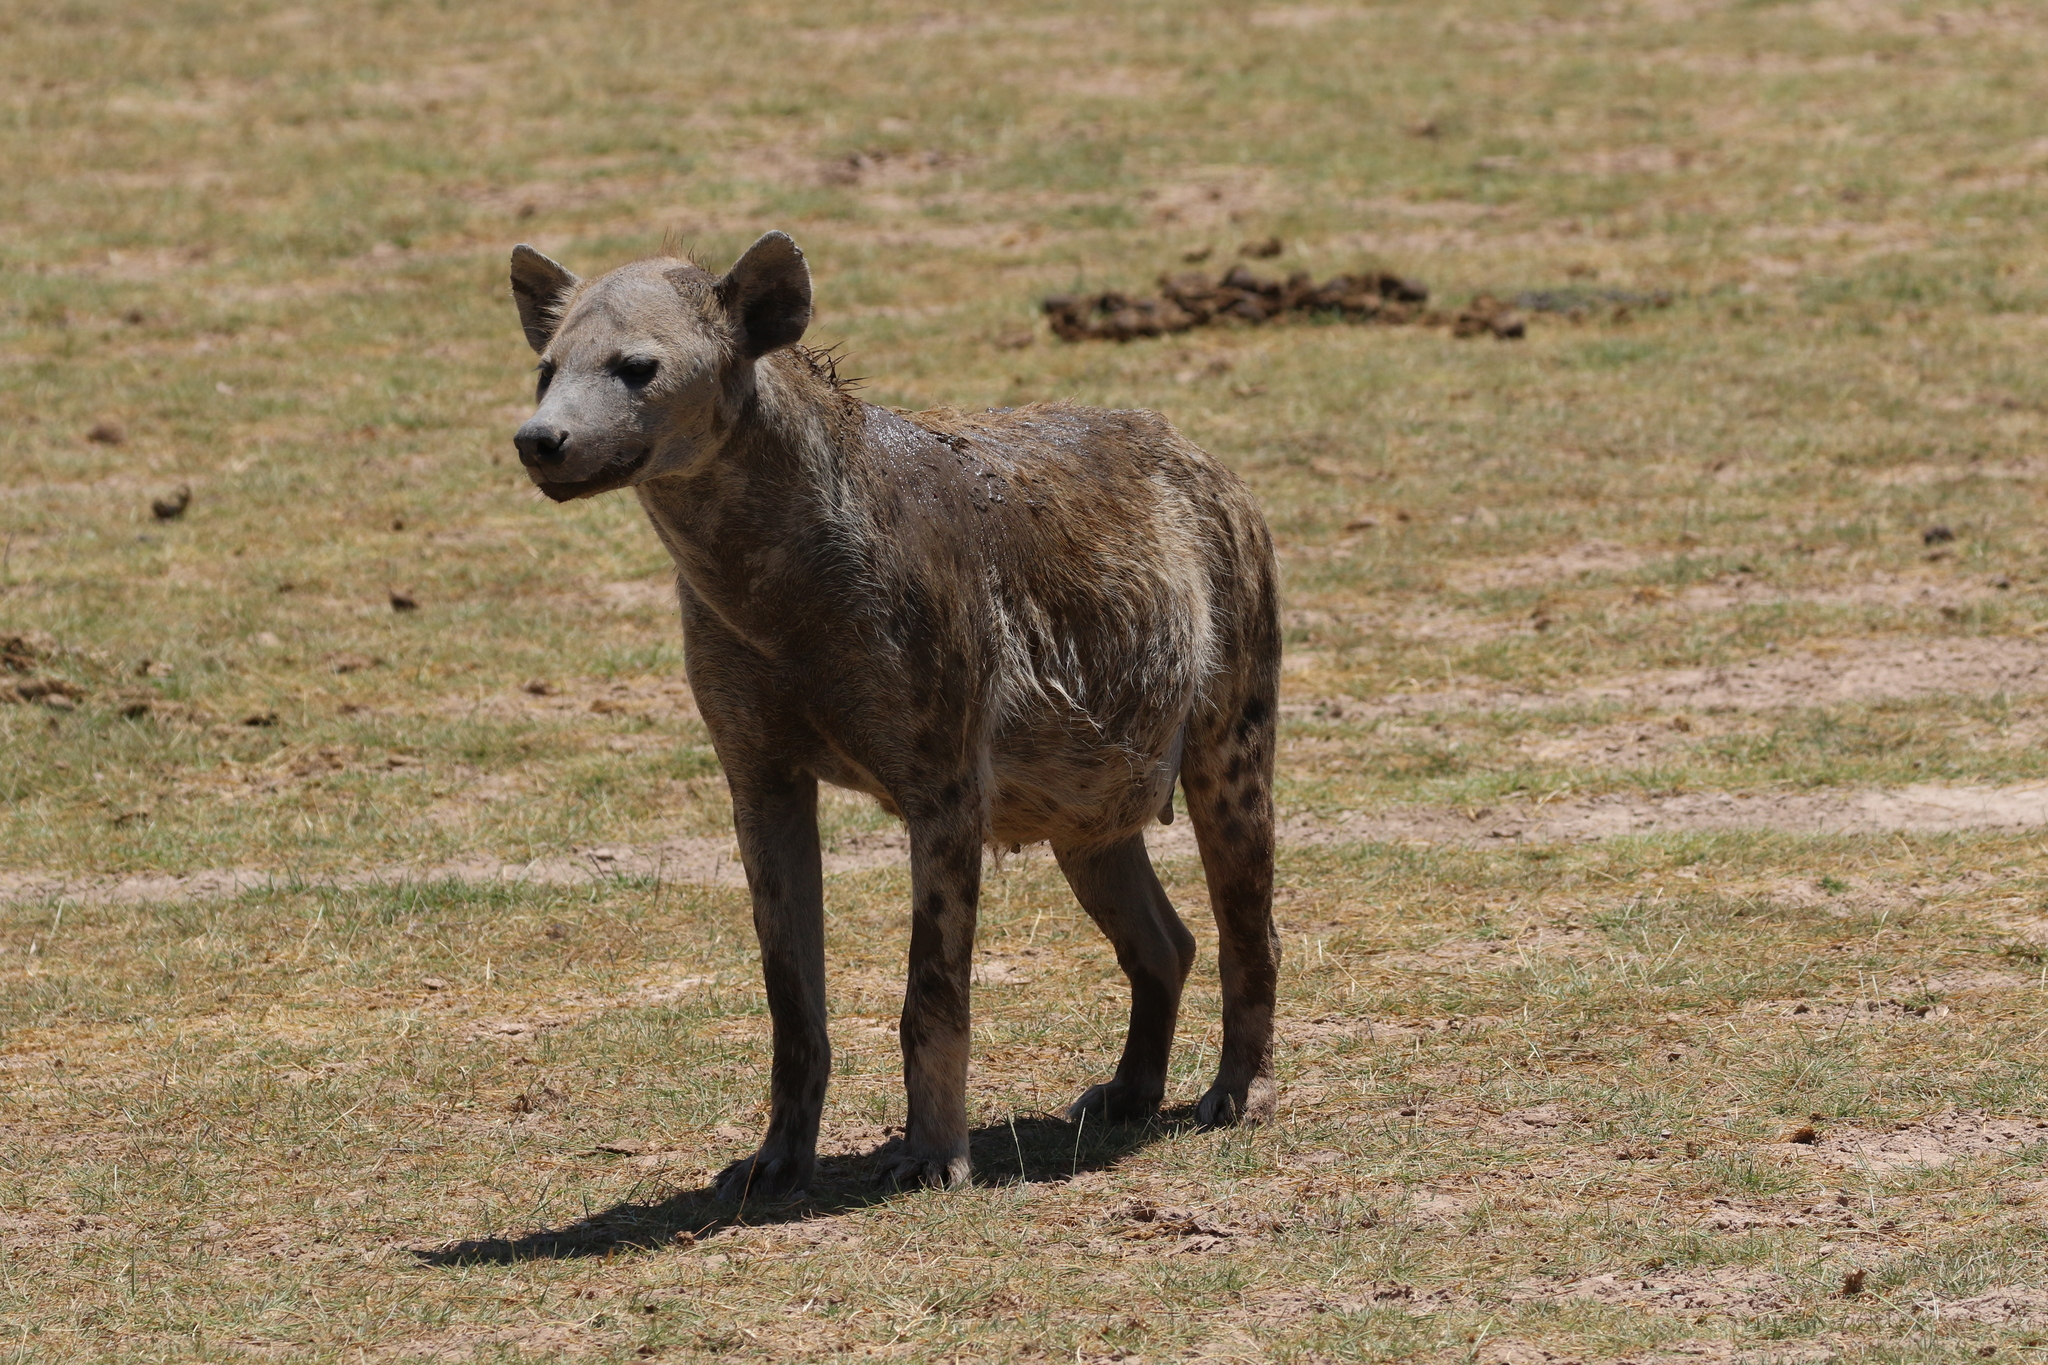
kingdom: Animalia
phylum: Chordata
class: Mammalia
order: Carnivora
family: Hyaenidae
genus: Crocuta
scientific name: Crocuta crocuta
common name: Spotted hyaena
